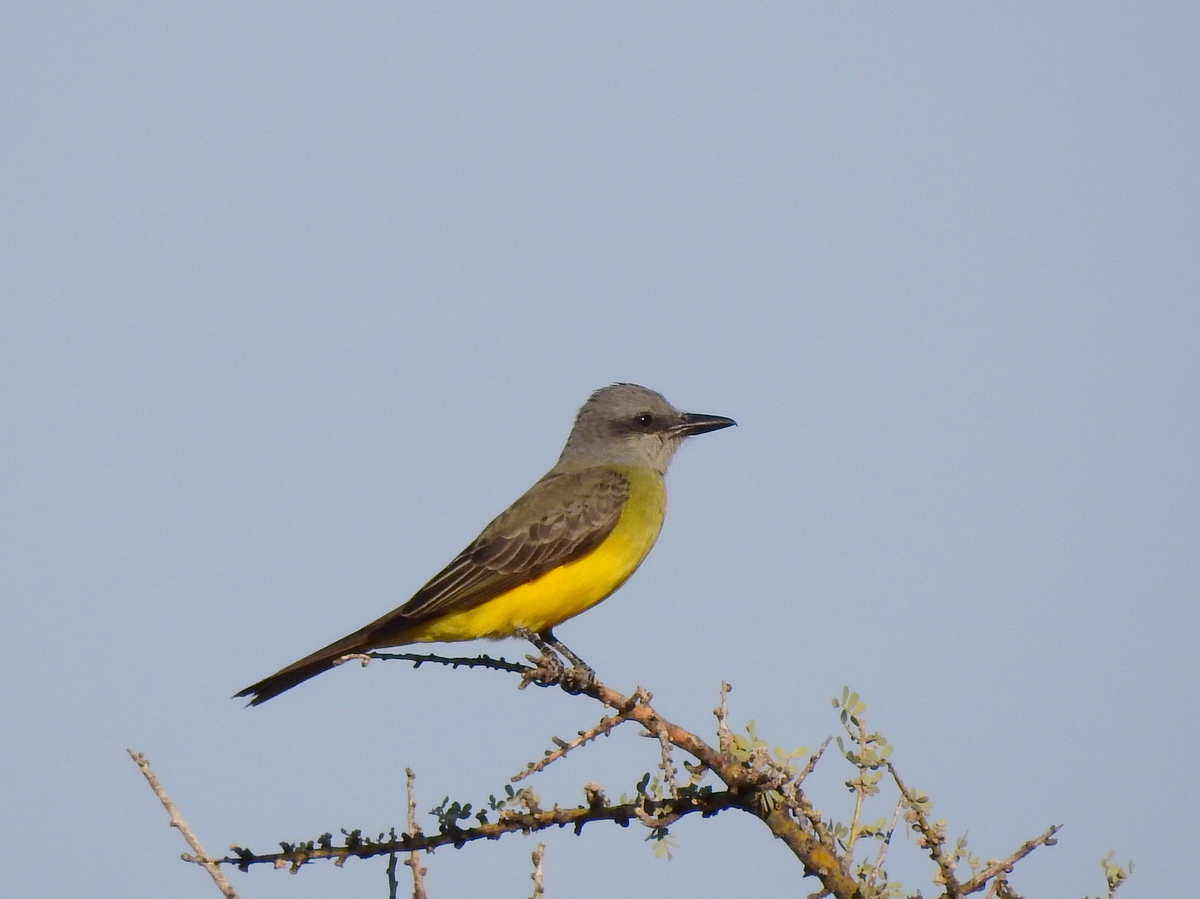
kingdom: Animalia
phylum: Chordata
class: Aves
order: Passeriformes
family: Tyrannidae
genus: Tyrannus
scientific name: Tyrannus melancholicus
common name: Tropical kingbird
